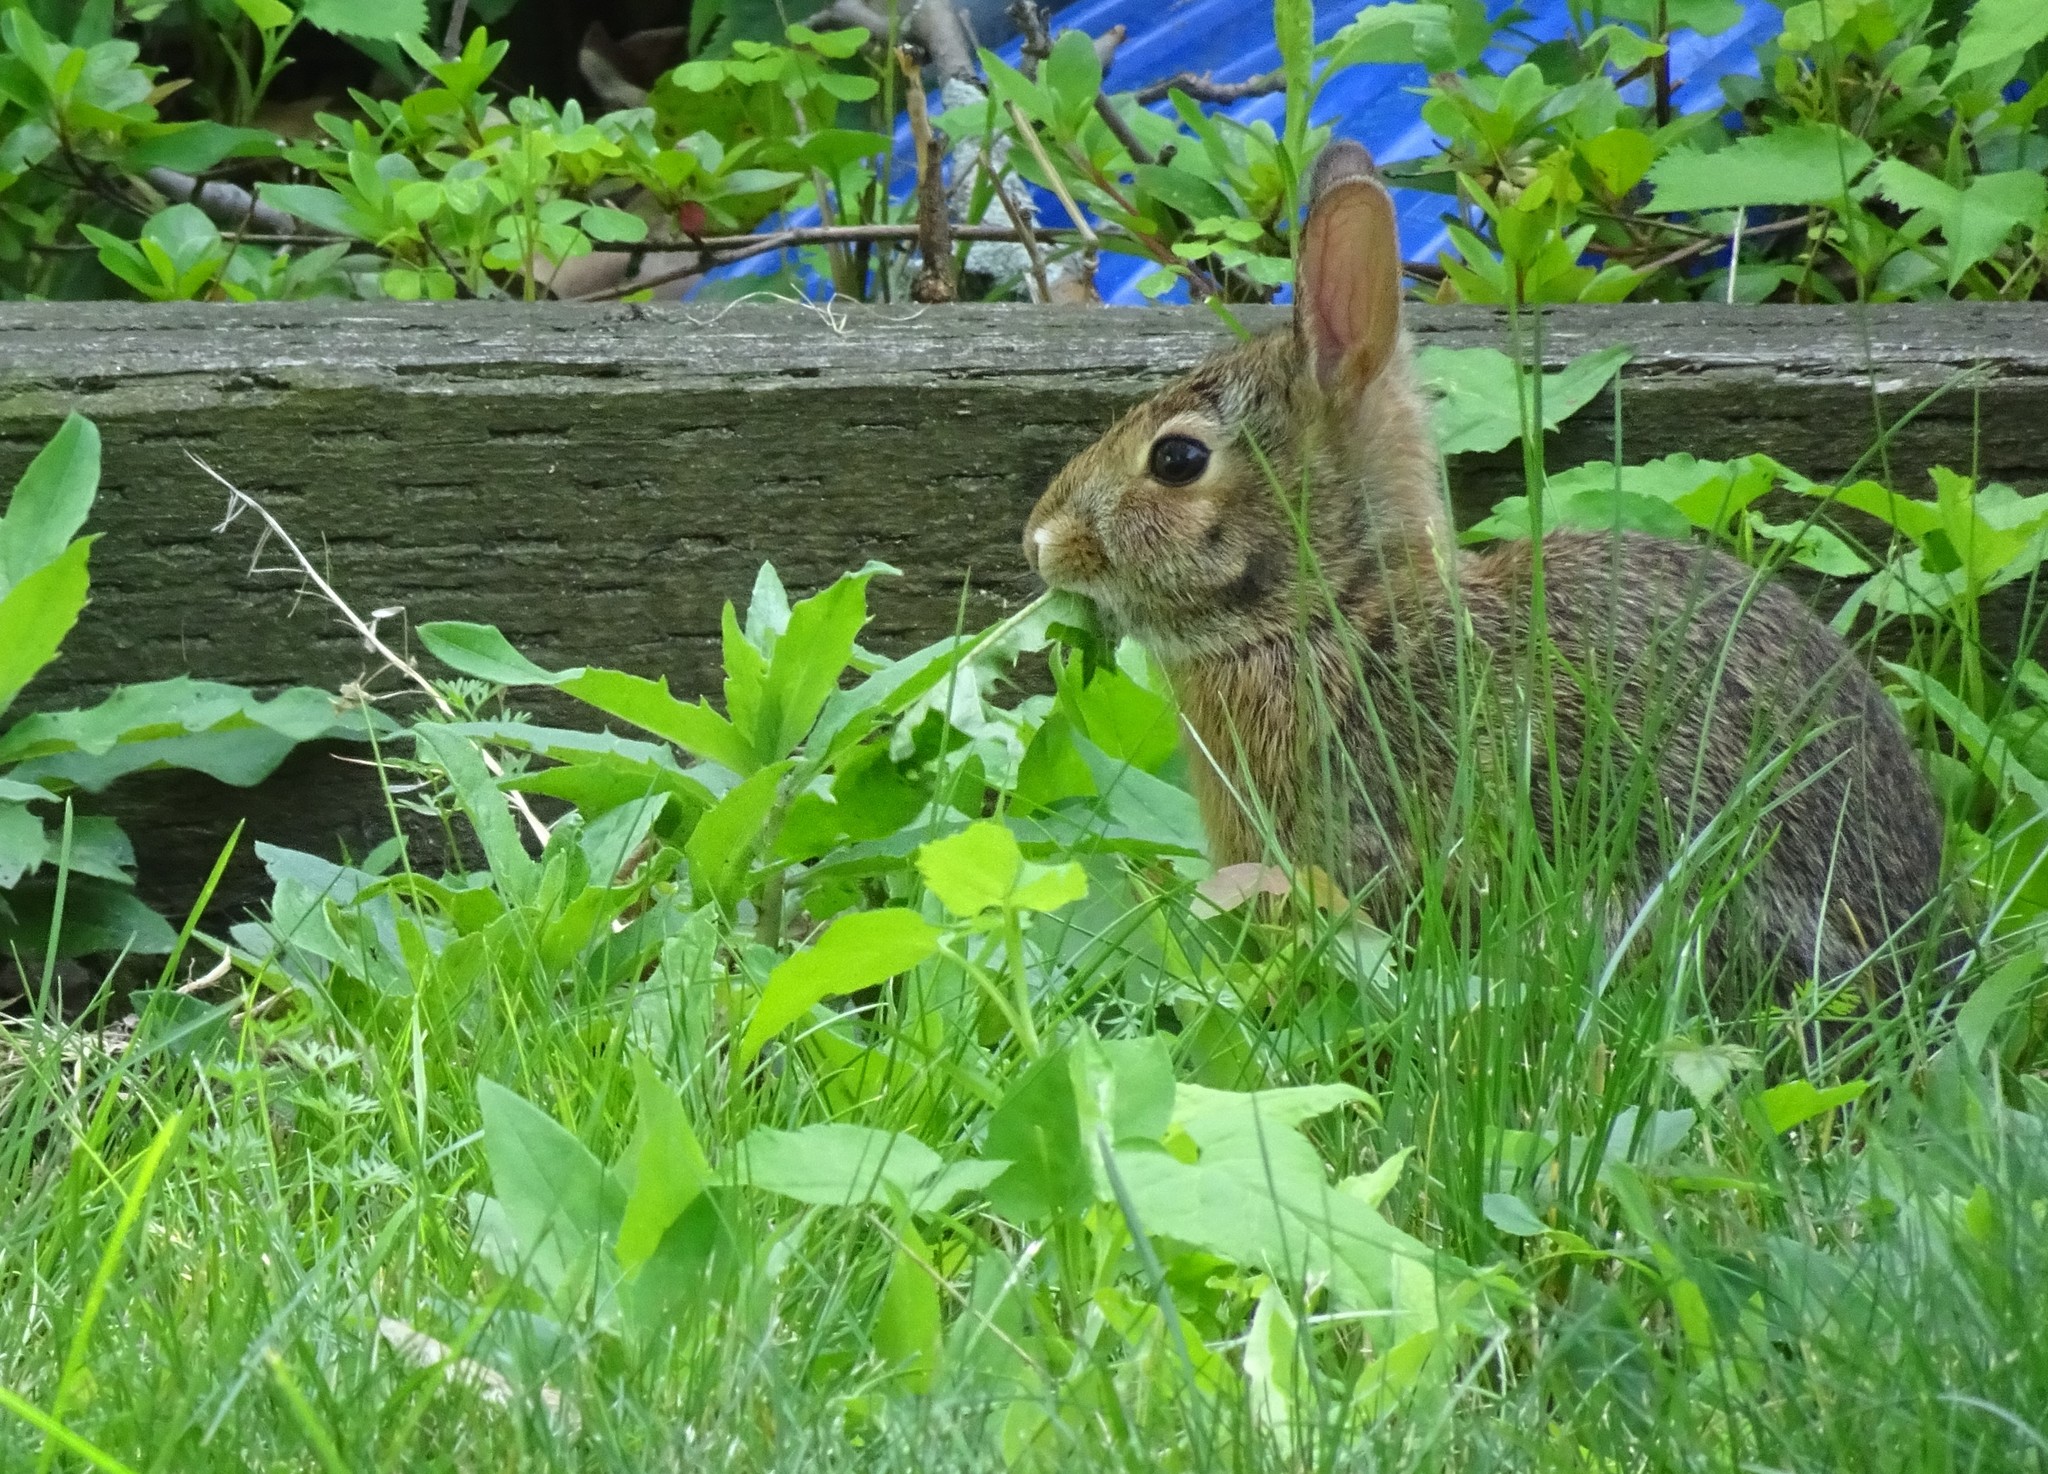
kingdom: Animalia
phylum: Chordata
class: Mammalia
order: Lagomorpha
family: Leporidae
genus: Sylvilagus
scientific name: Sylvilagus floridanus
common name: Eastern cottontail
